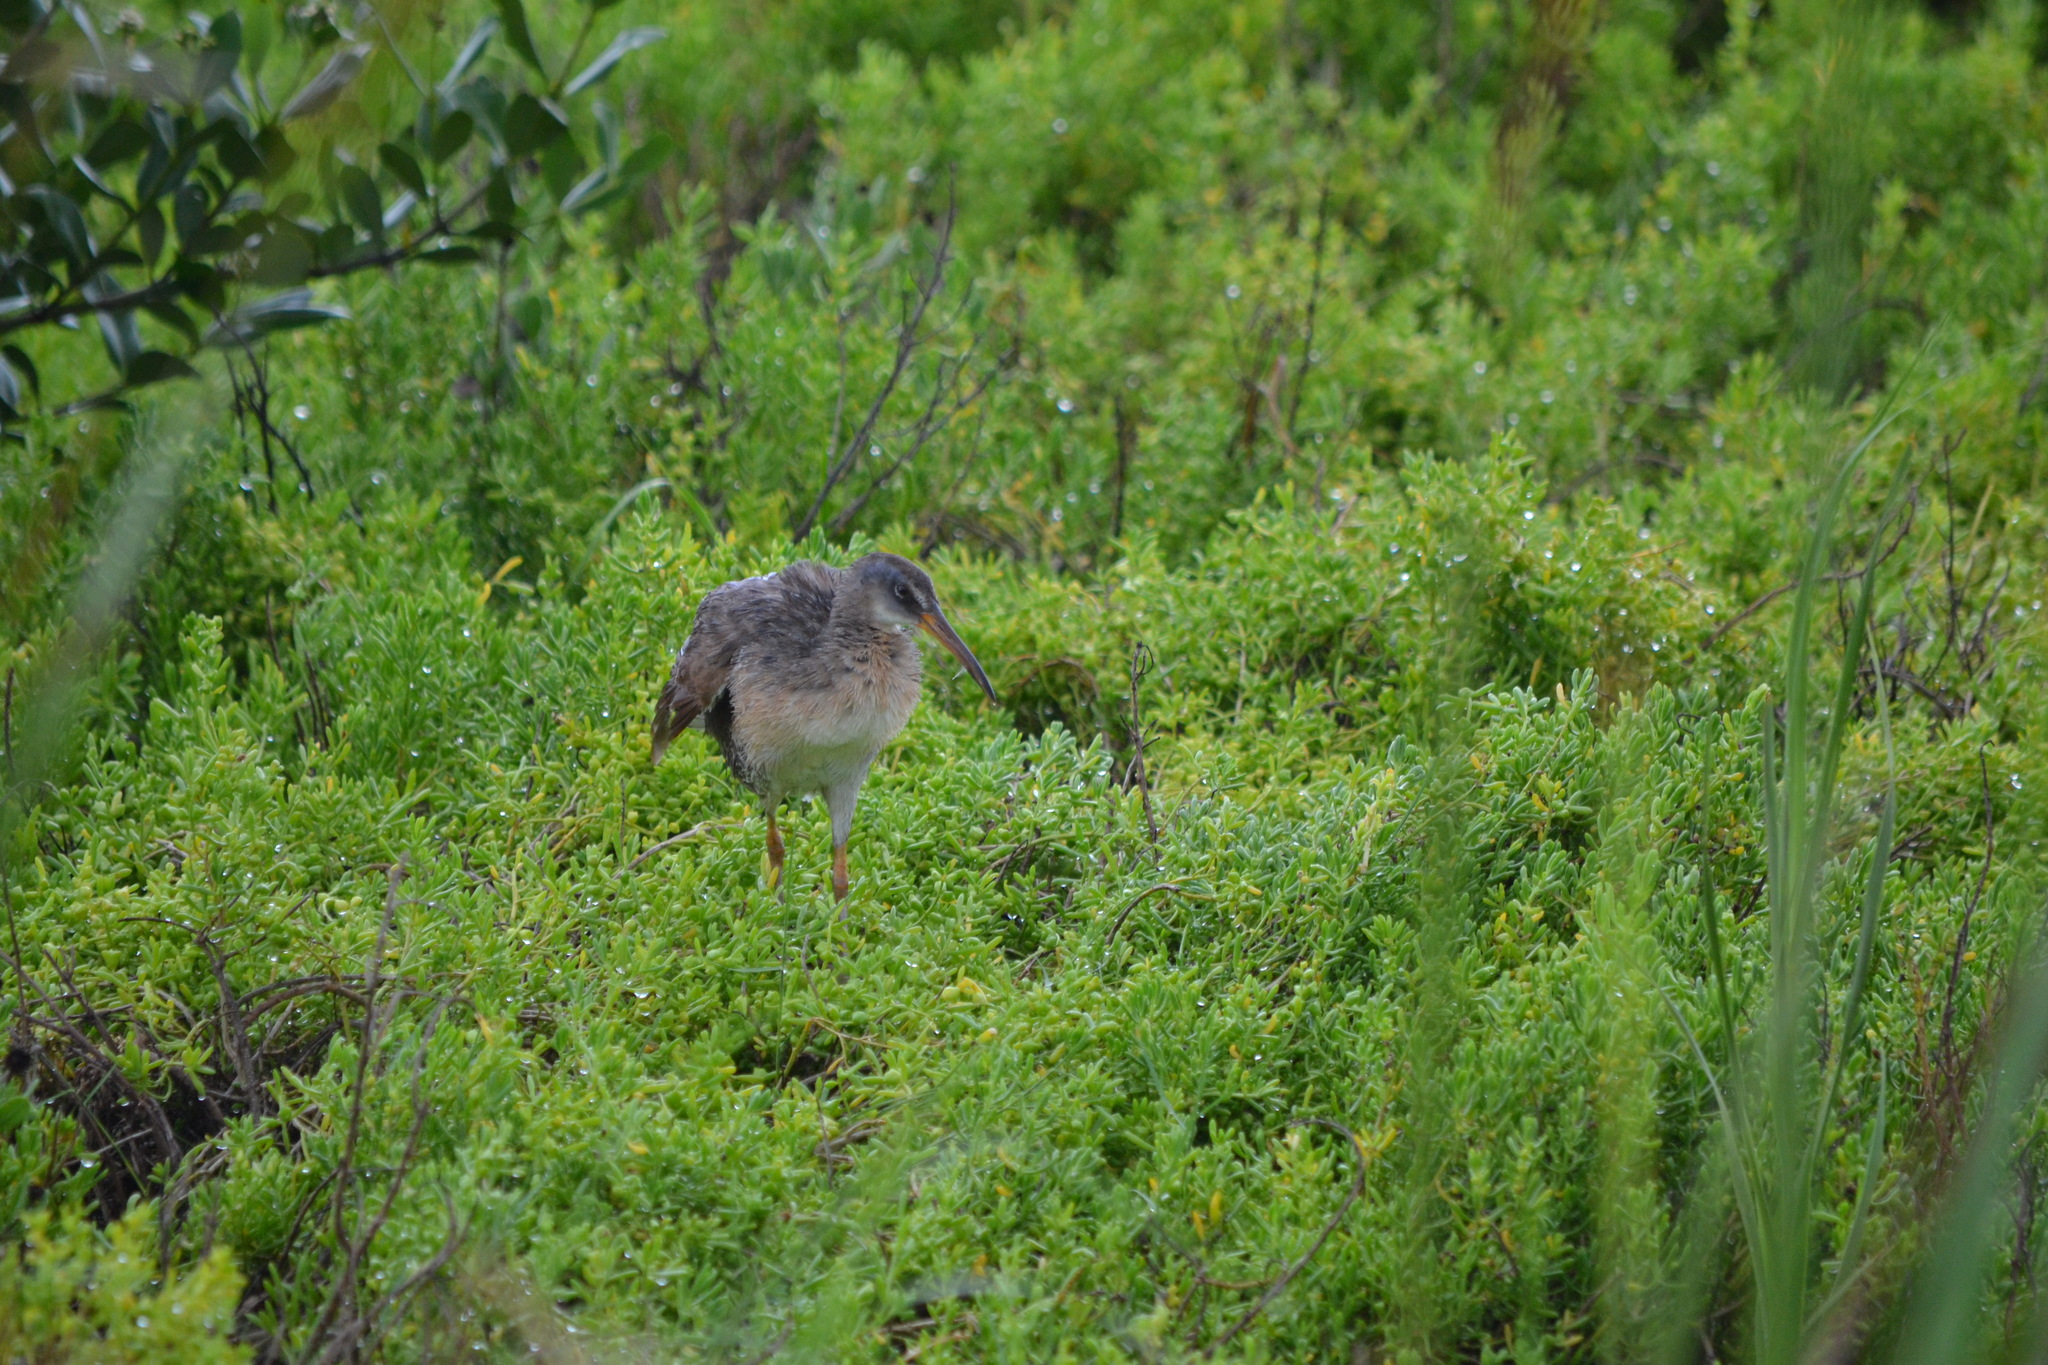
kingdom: Animalia
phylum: Chordata
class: Aves
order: Gruiformes
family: Rallidae
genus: Rallus
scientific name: Rallus crepitans
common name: Clapper rail
